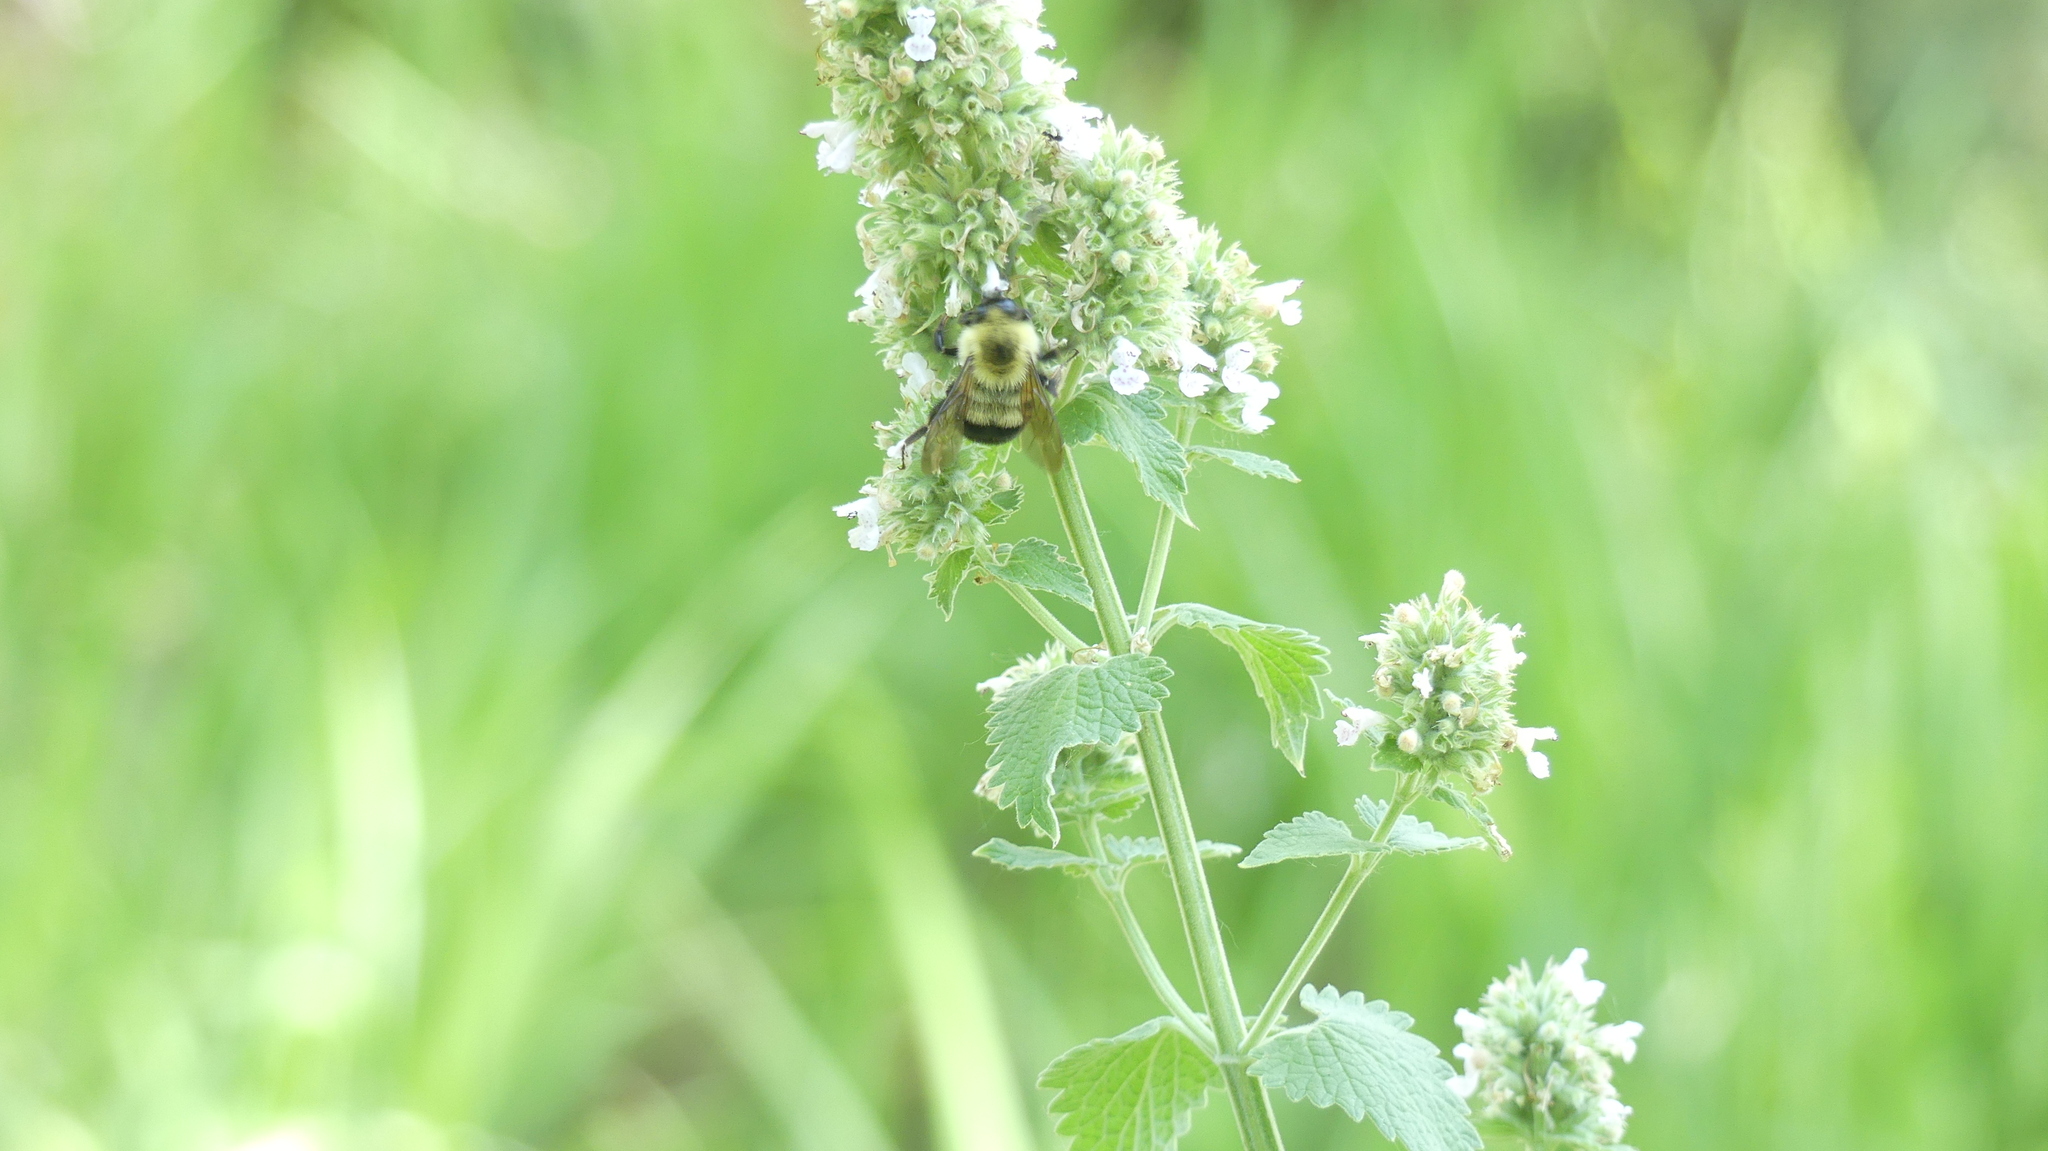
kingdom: Animalia
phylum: Arthropoda
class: Insecta
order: Hymenoptera
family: Apidae
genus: Bombus
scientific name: Bombus bimaculatus
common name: Two-spotted bumble bee
